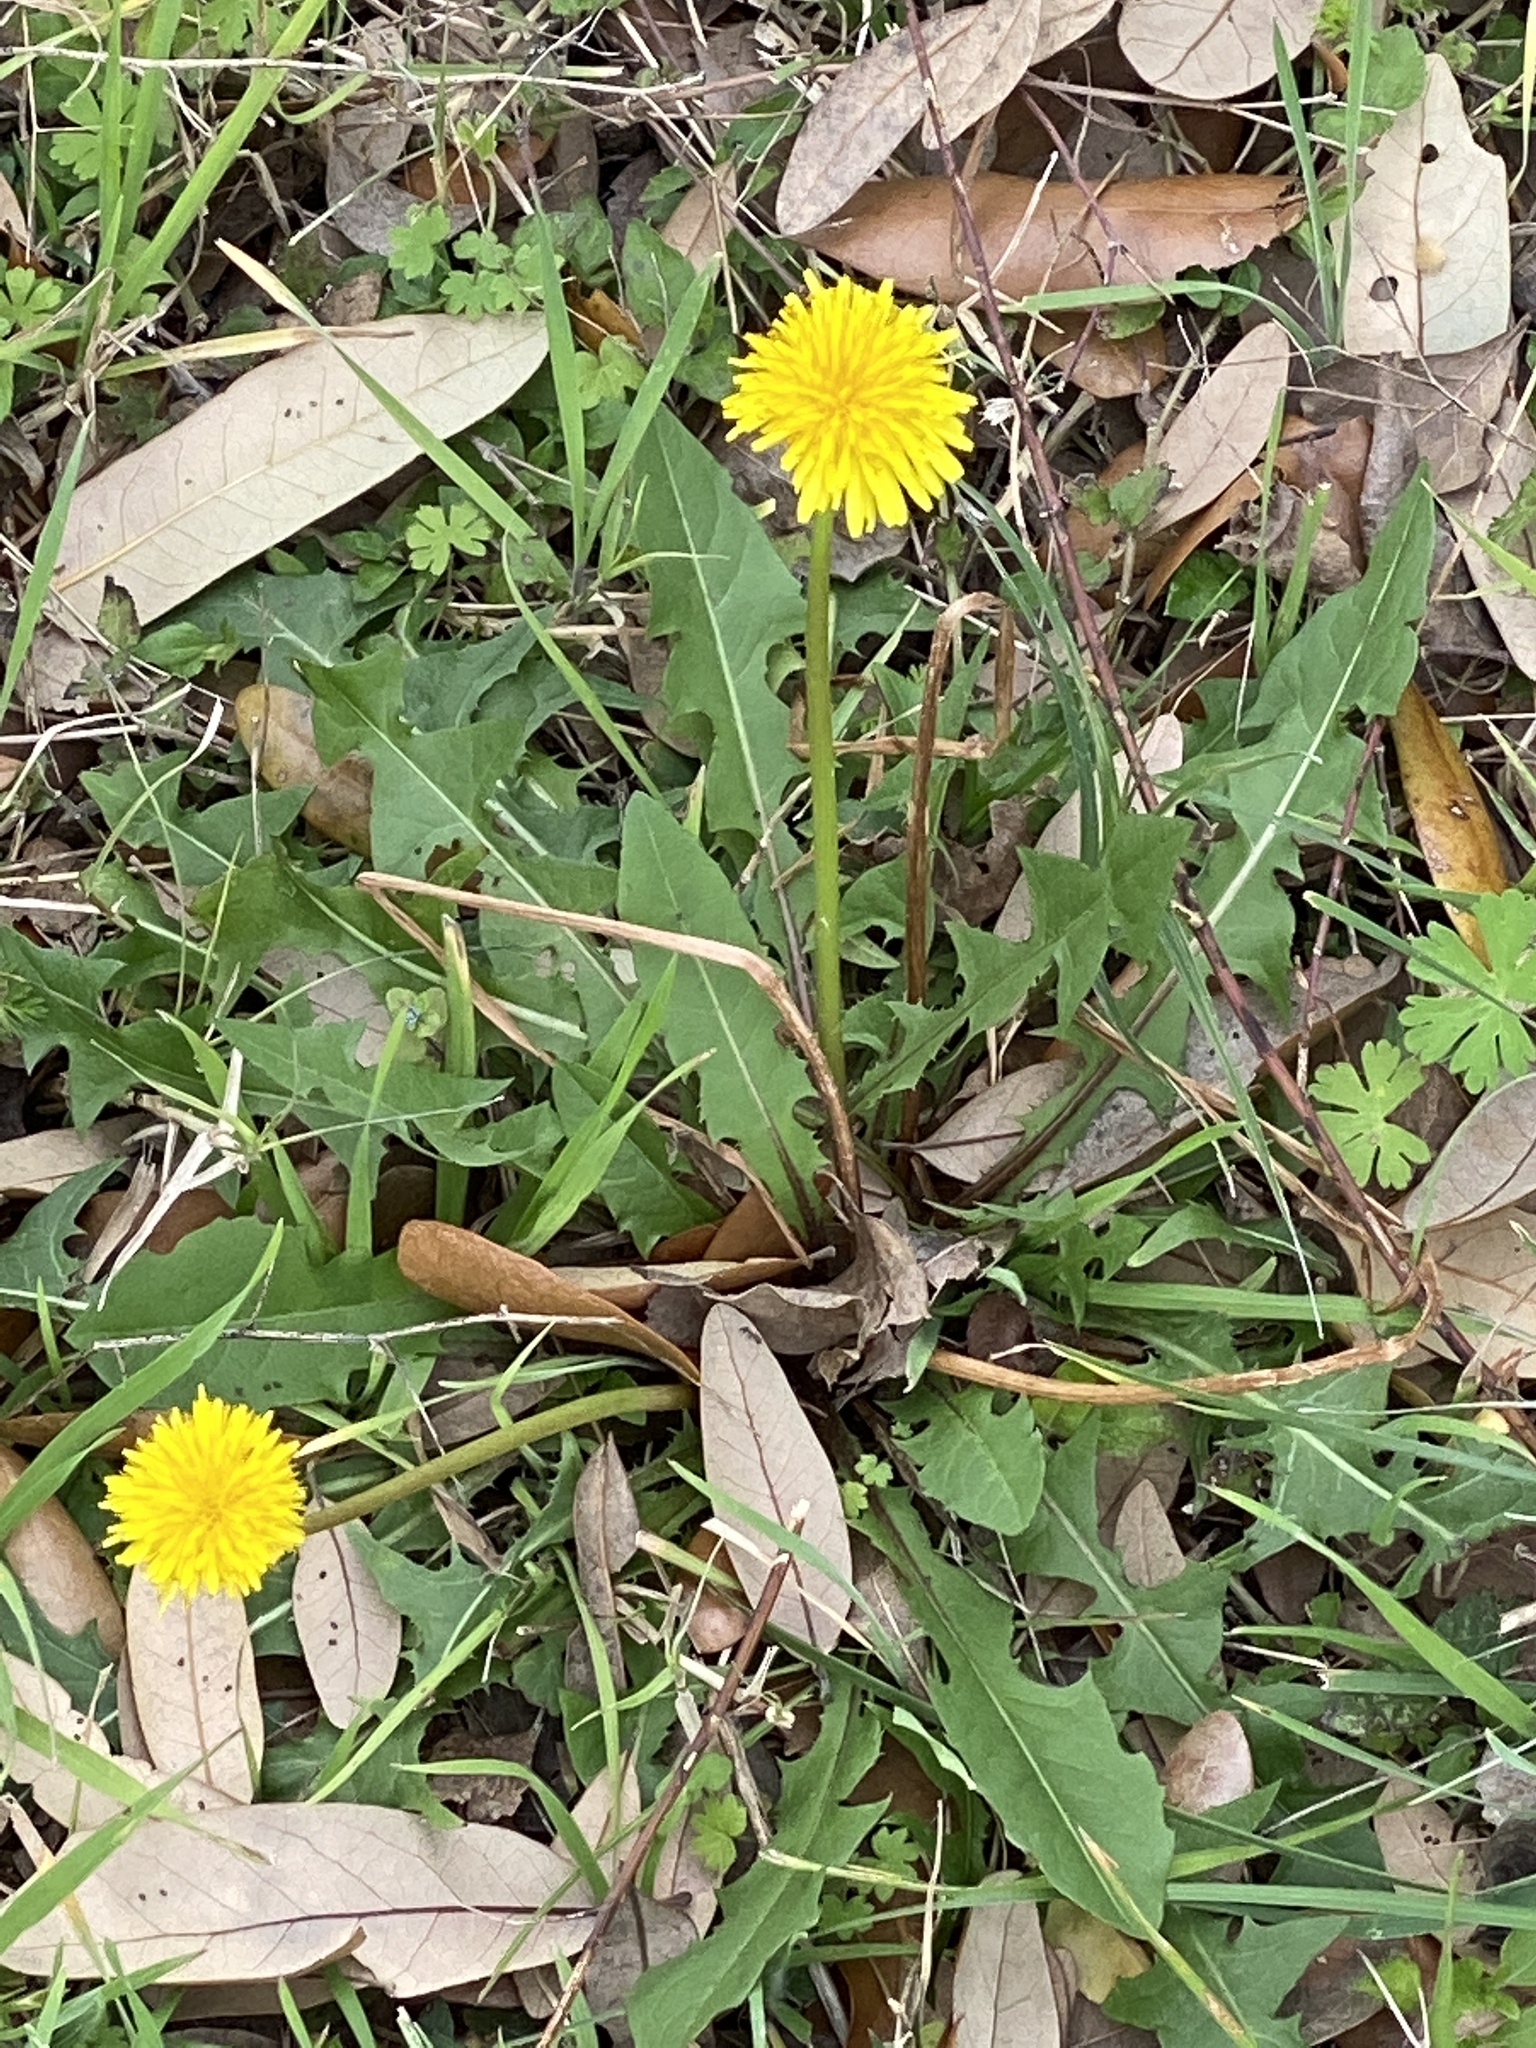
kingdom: Plantae
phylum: Tracheophyta
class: Magnoliopsida
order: Asterales
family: Asteraceae
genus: Taraxacum
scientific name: Taraxacum officinale
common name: Common dandelion
